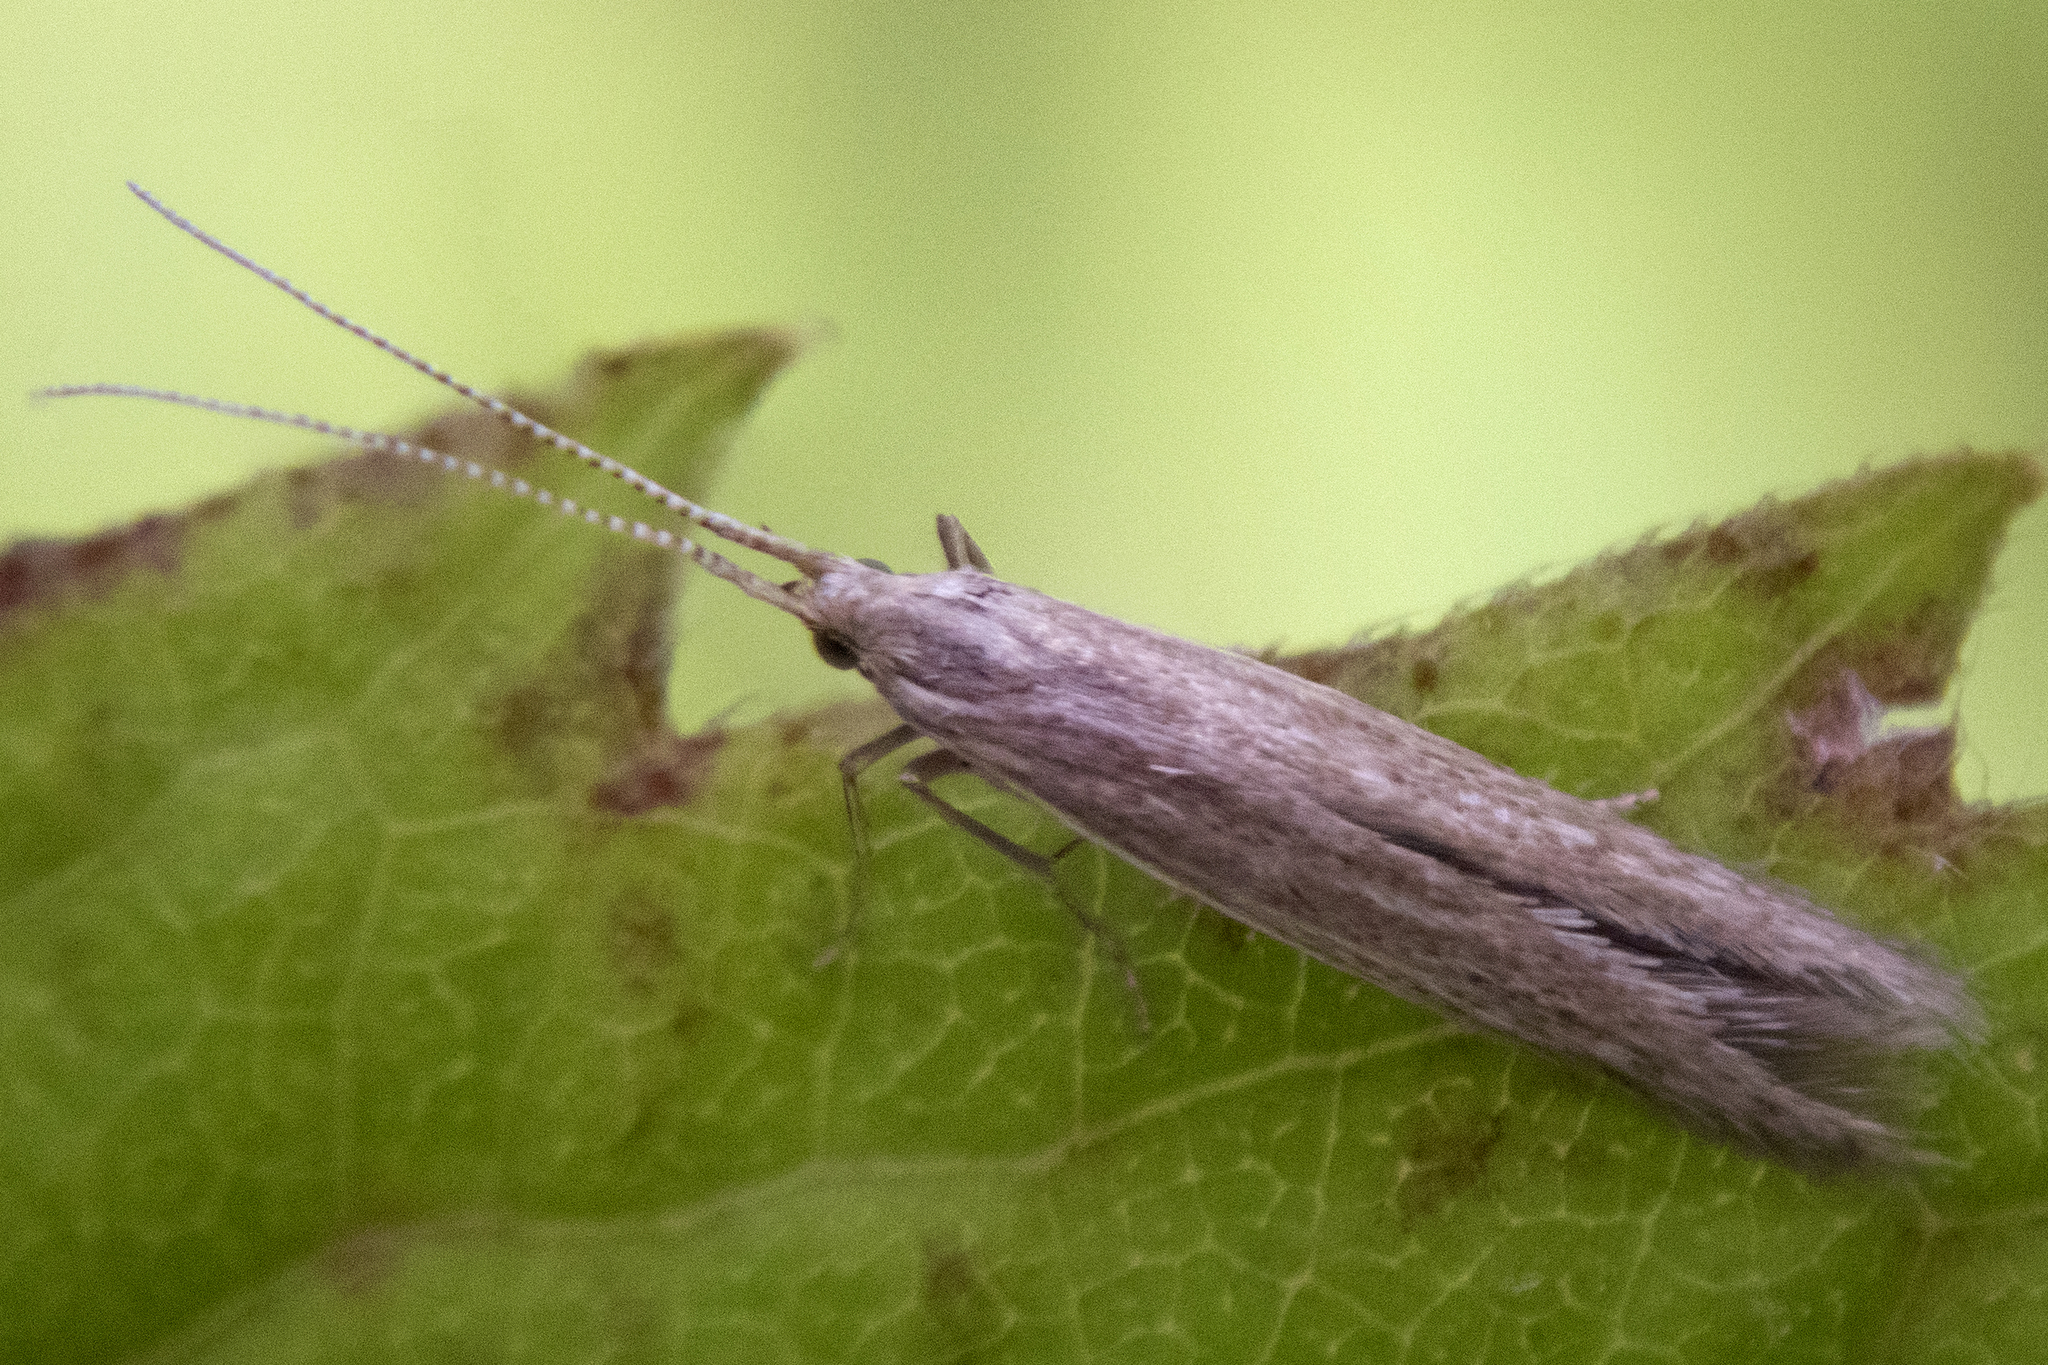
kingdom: Animalia
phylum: Arthropoda
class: Insecta
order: Lepidoptera
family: Coleophoridae
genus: Coleophora
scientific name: Coleophora
